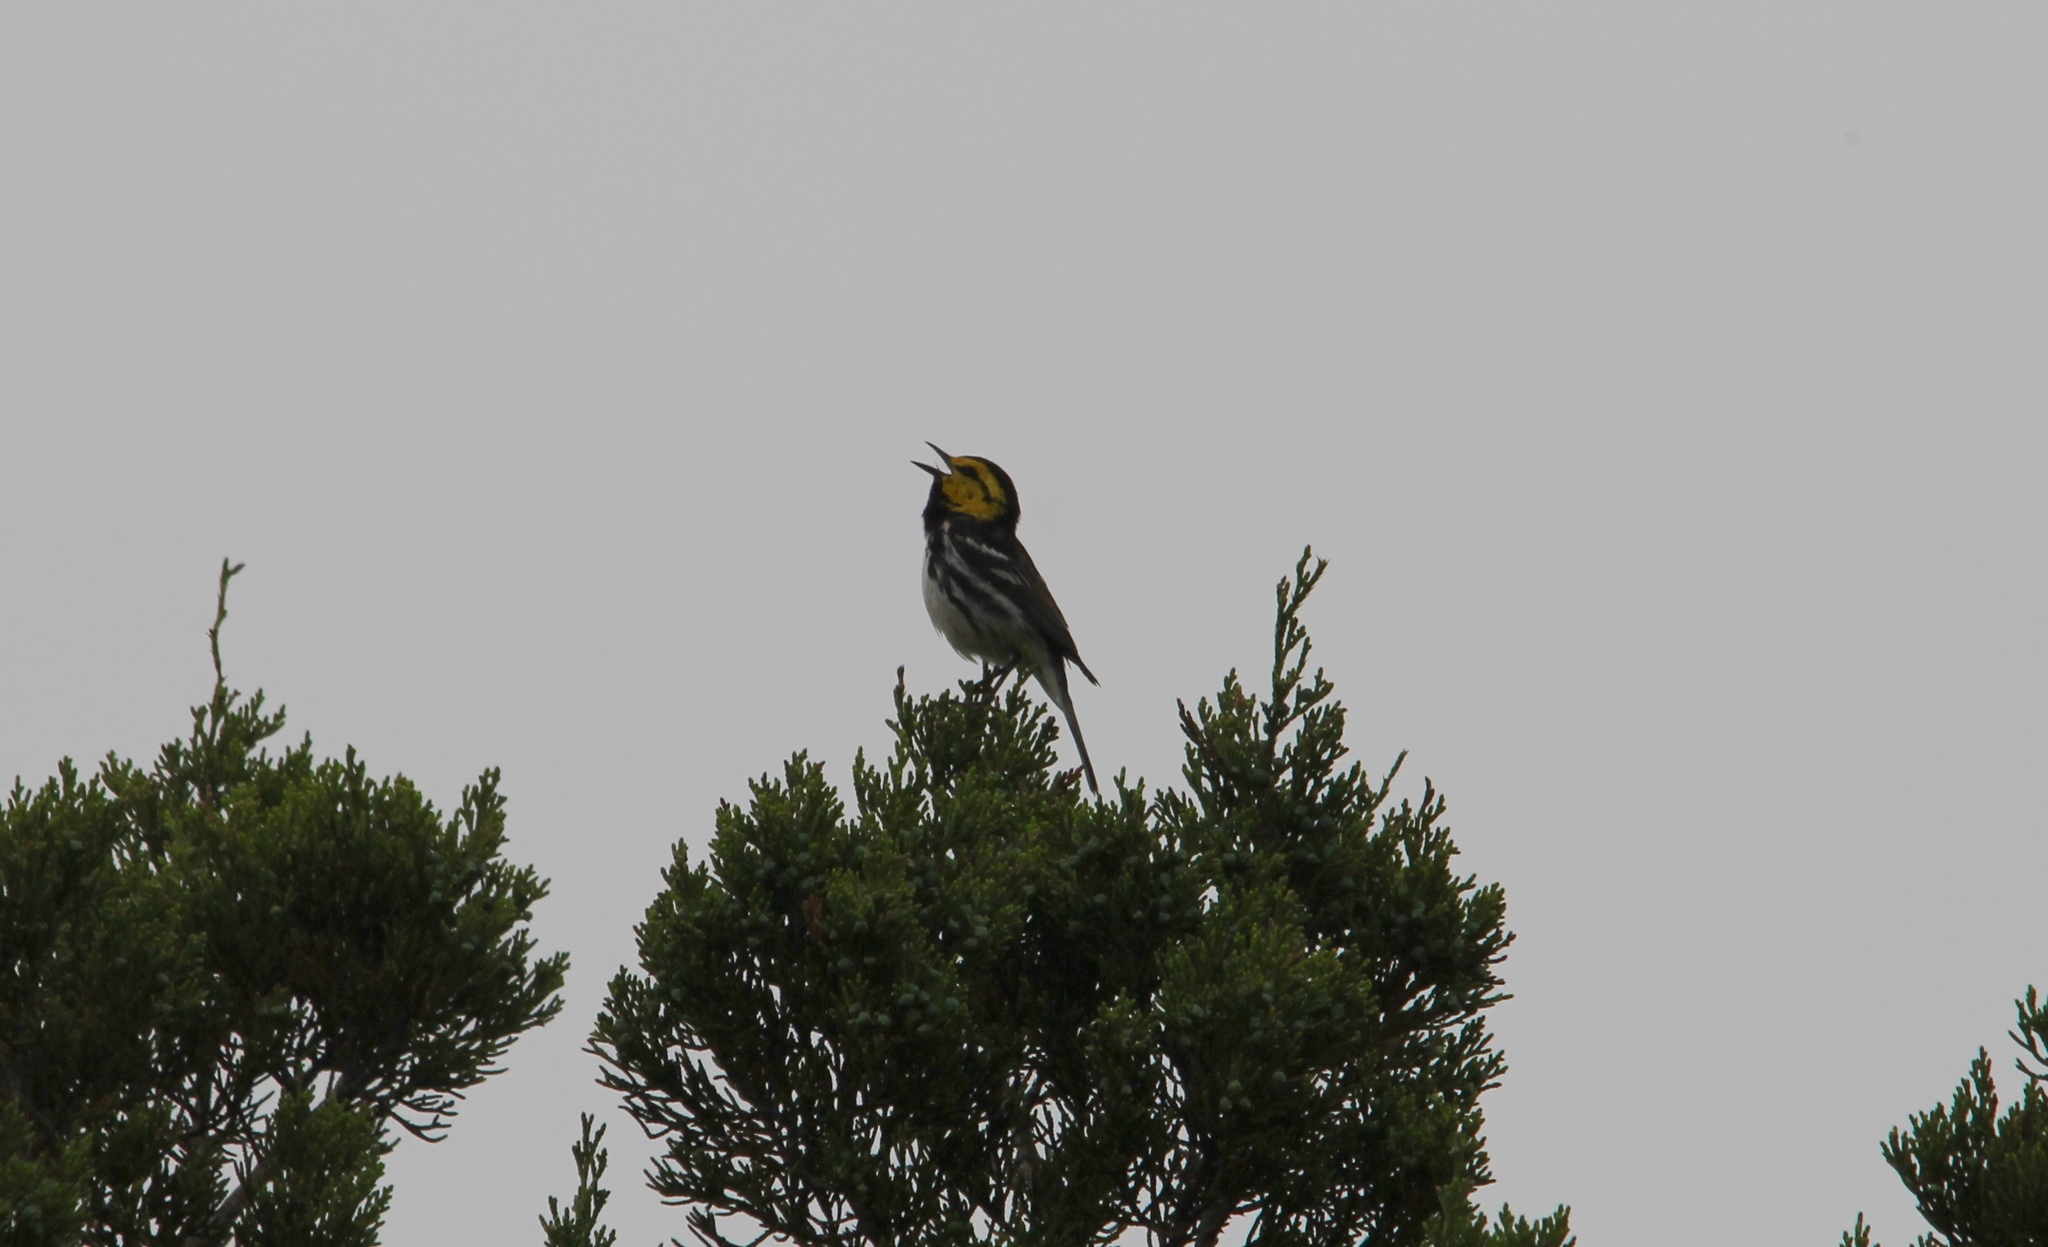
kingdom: Animalia
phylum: Chordata
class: Aves
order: Passeriformes
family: Parulidae
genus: Setophaga
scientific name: Setophaga chrysoparia
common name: Golden-cheeked warbler
